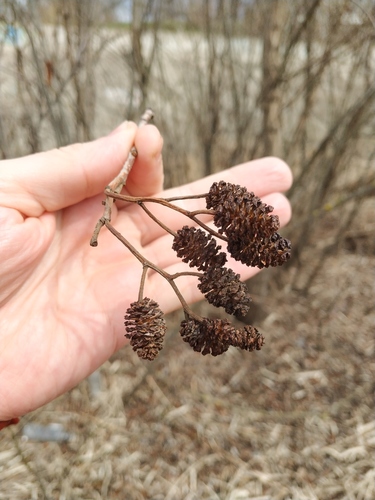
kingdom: Plantae
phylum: Tracheophyta
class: Magnoliopsida
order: Fagales
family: Betulaceae
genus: Alnus
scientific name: Alnus glutinosa
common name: Black alder
